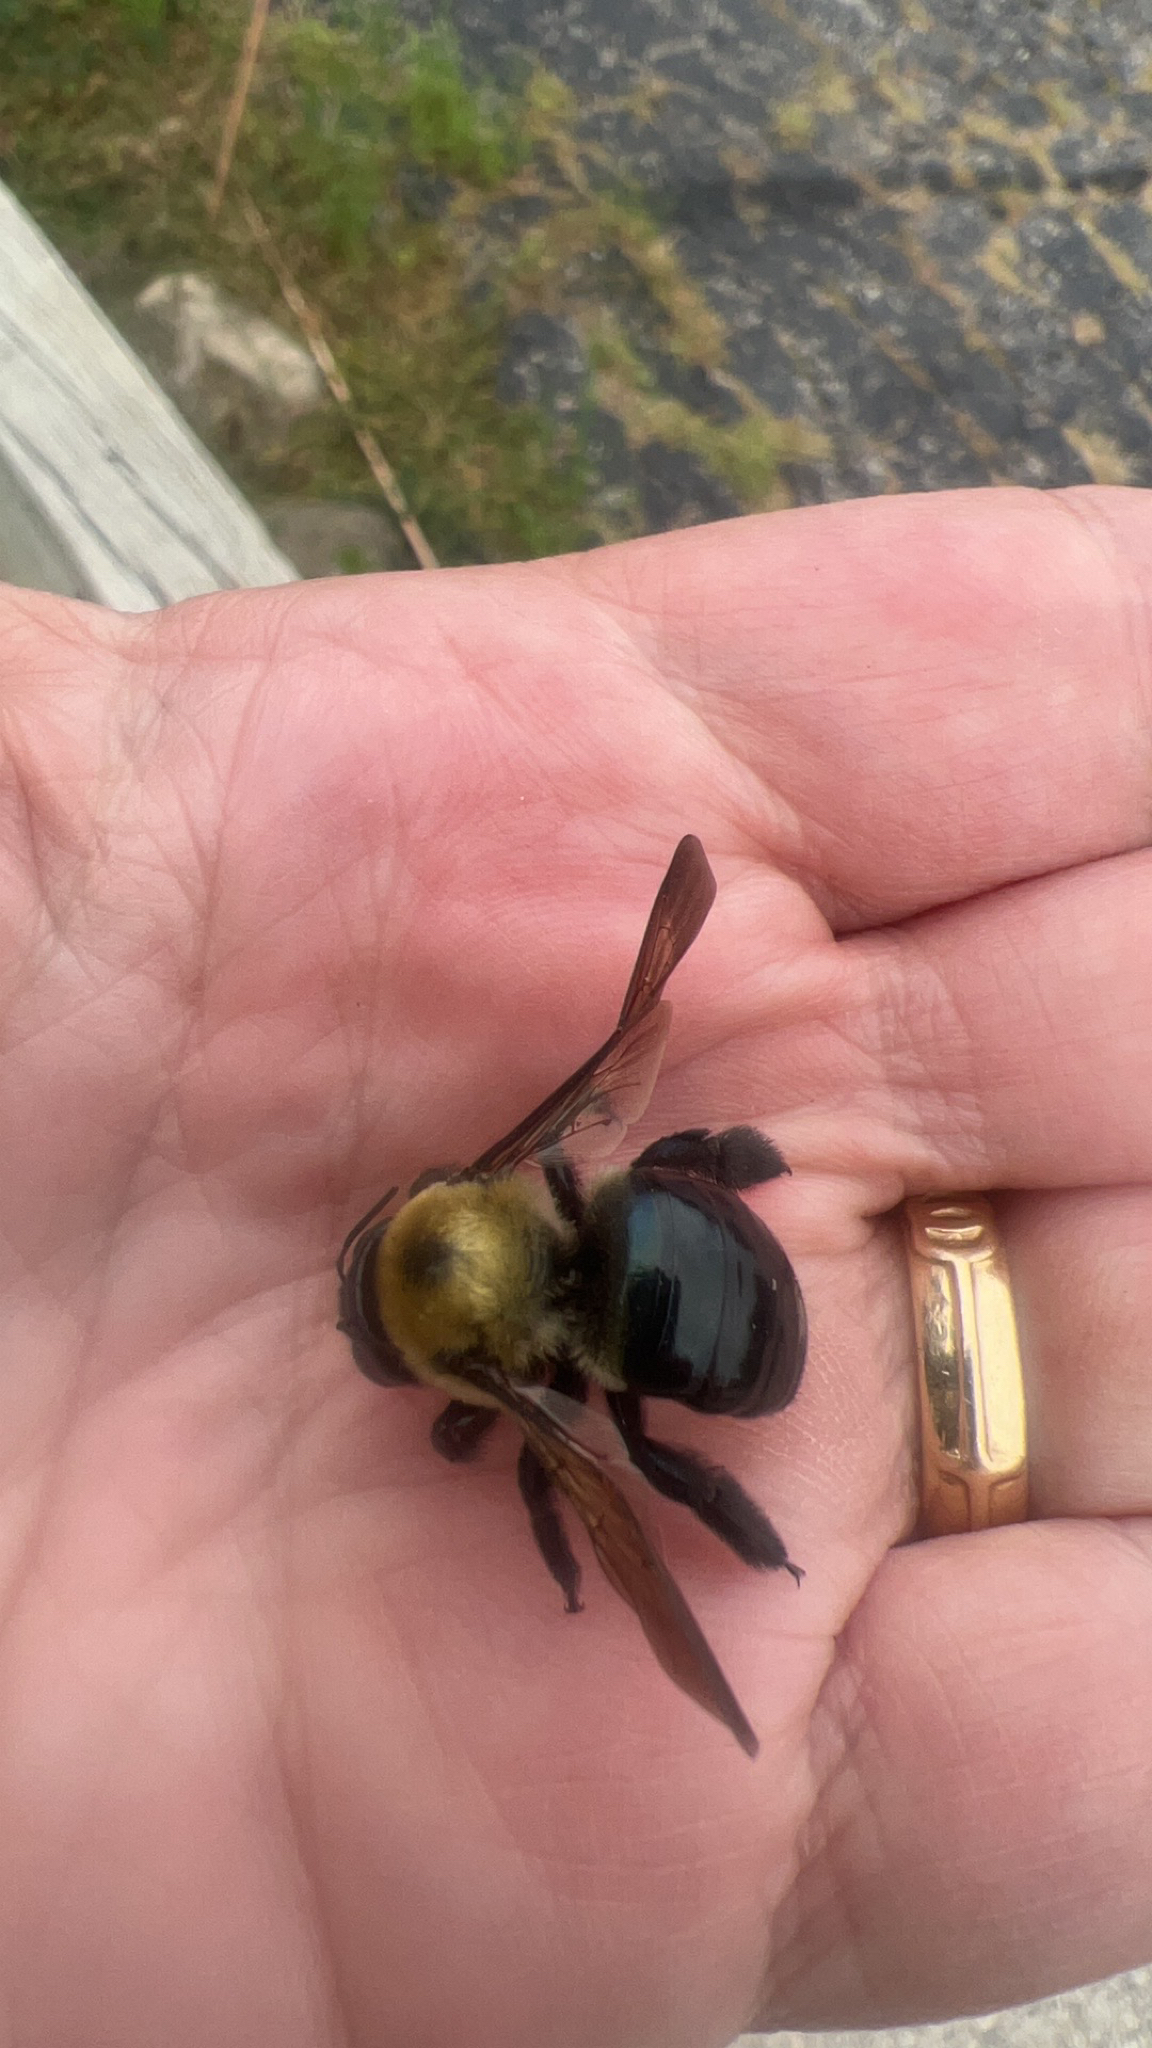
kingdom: Animalia
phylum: Arthropoda
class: Insecta
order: Hymenoptera
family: Apidae
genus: Xylocopa
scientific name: Xylocopa virginica
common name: Carpenter bee
